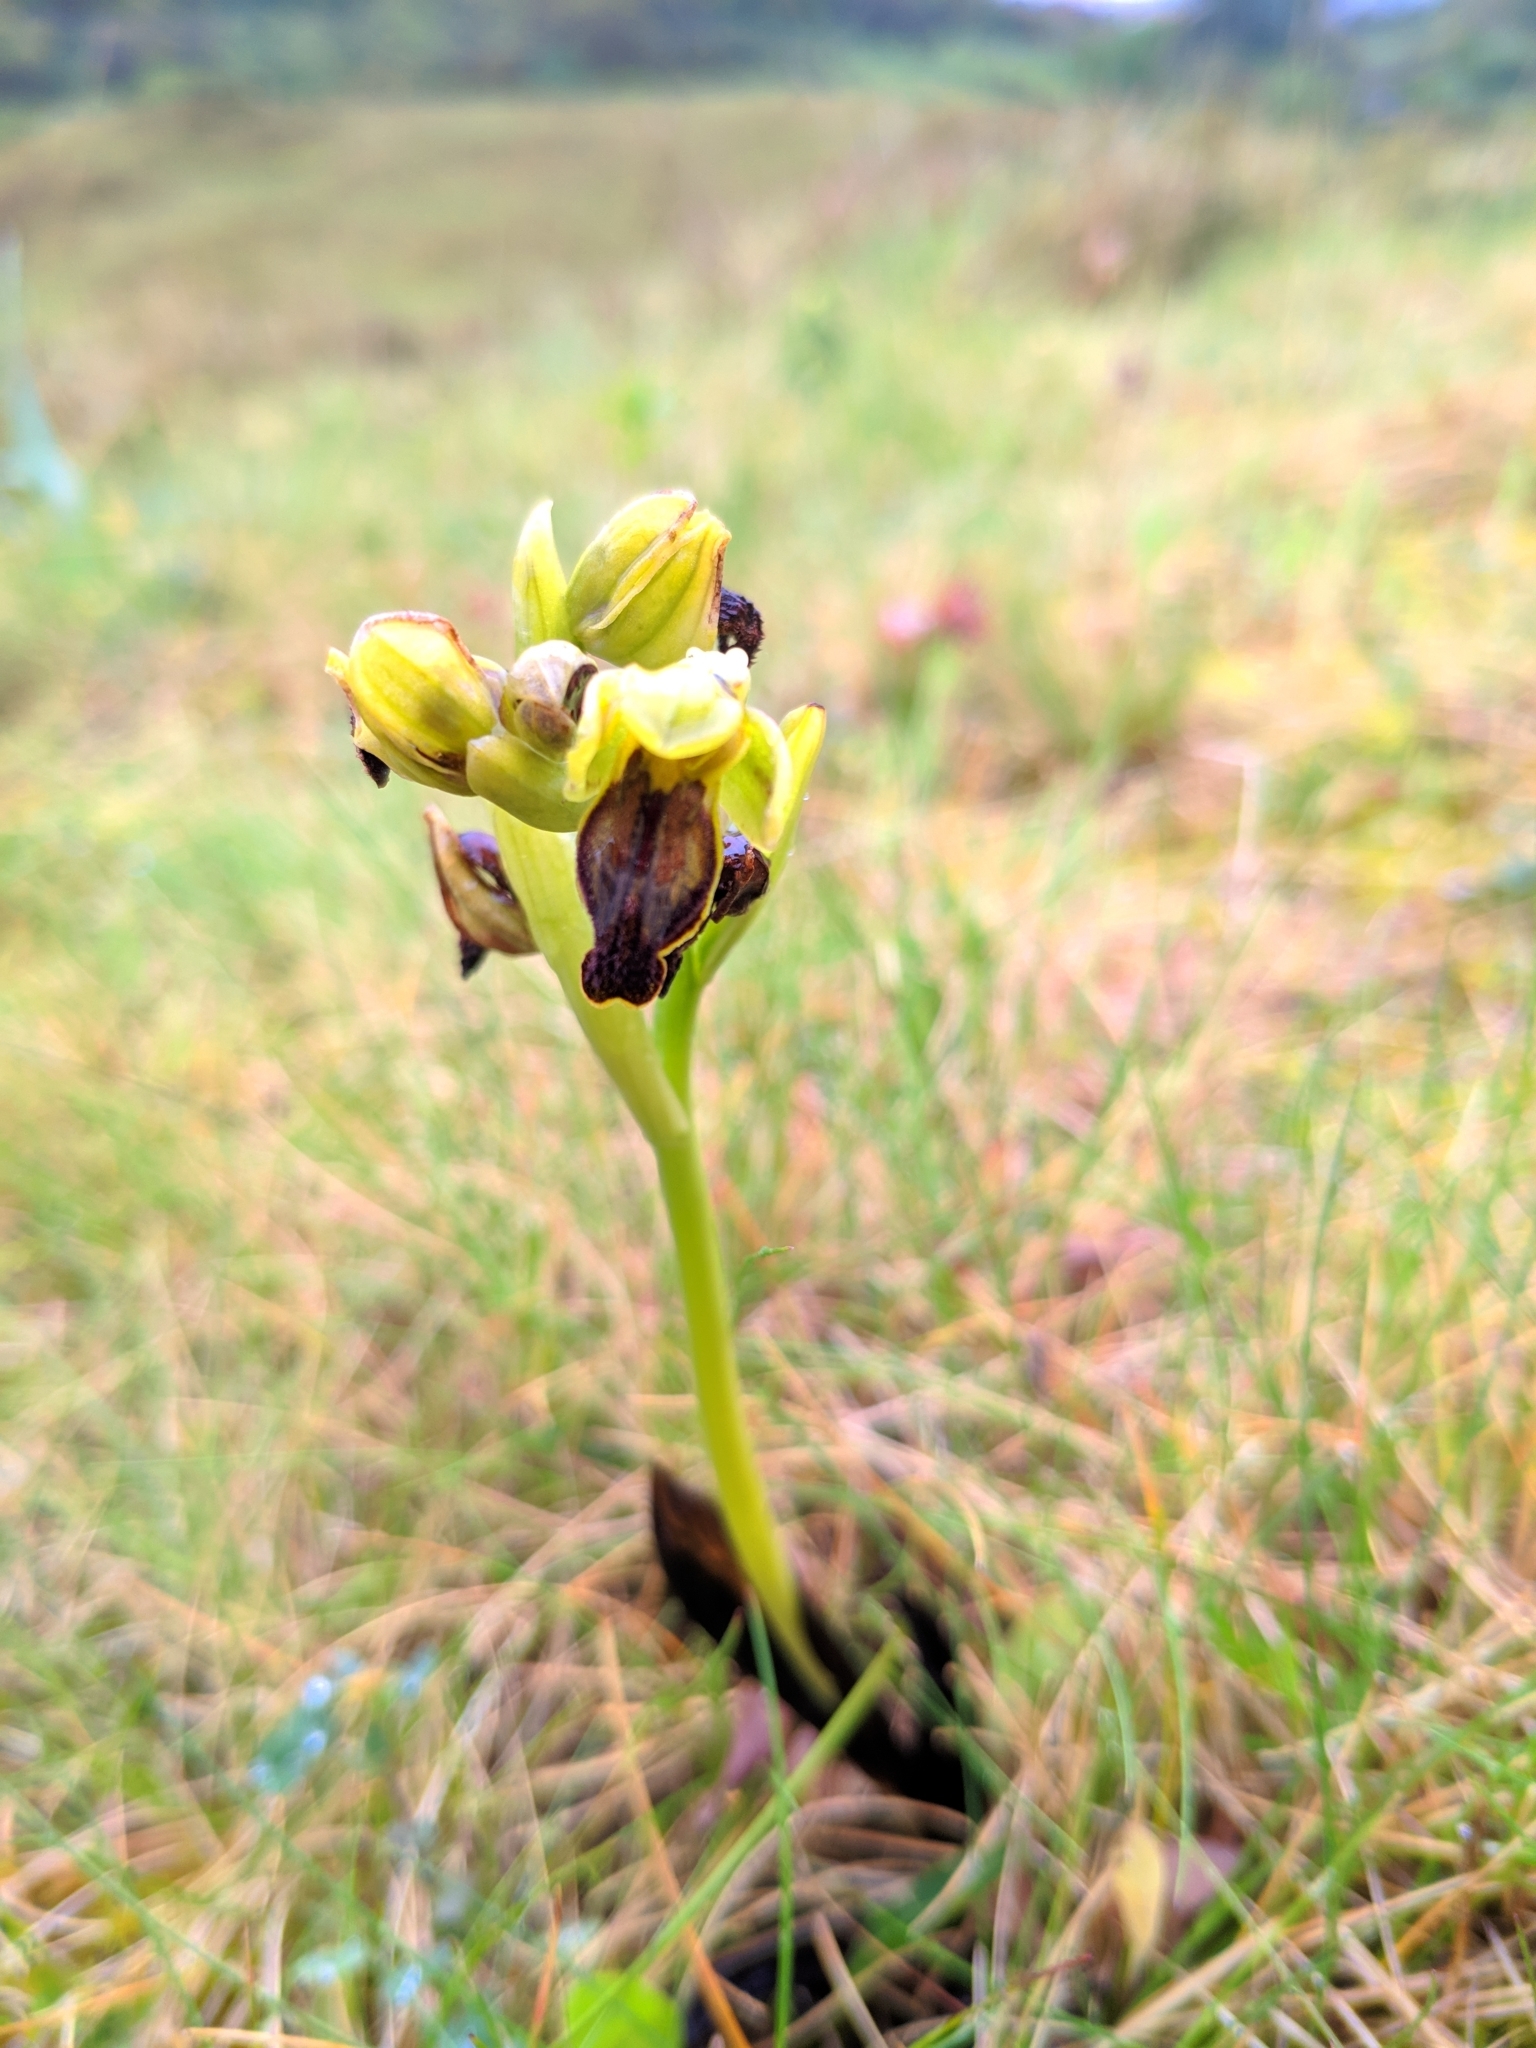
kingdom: Plantae
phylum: Tracheophyta
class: Liliopsida
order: Asparagales
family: Orchidaceae
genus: Ophrys
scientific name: Ophrys fusca
